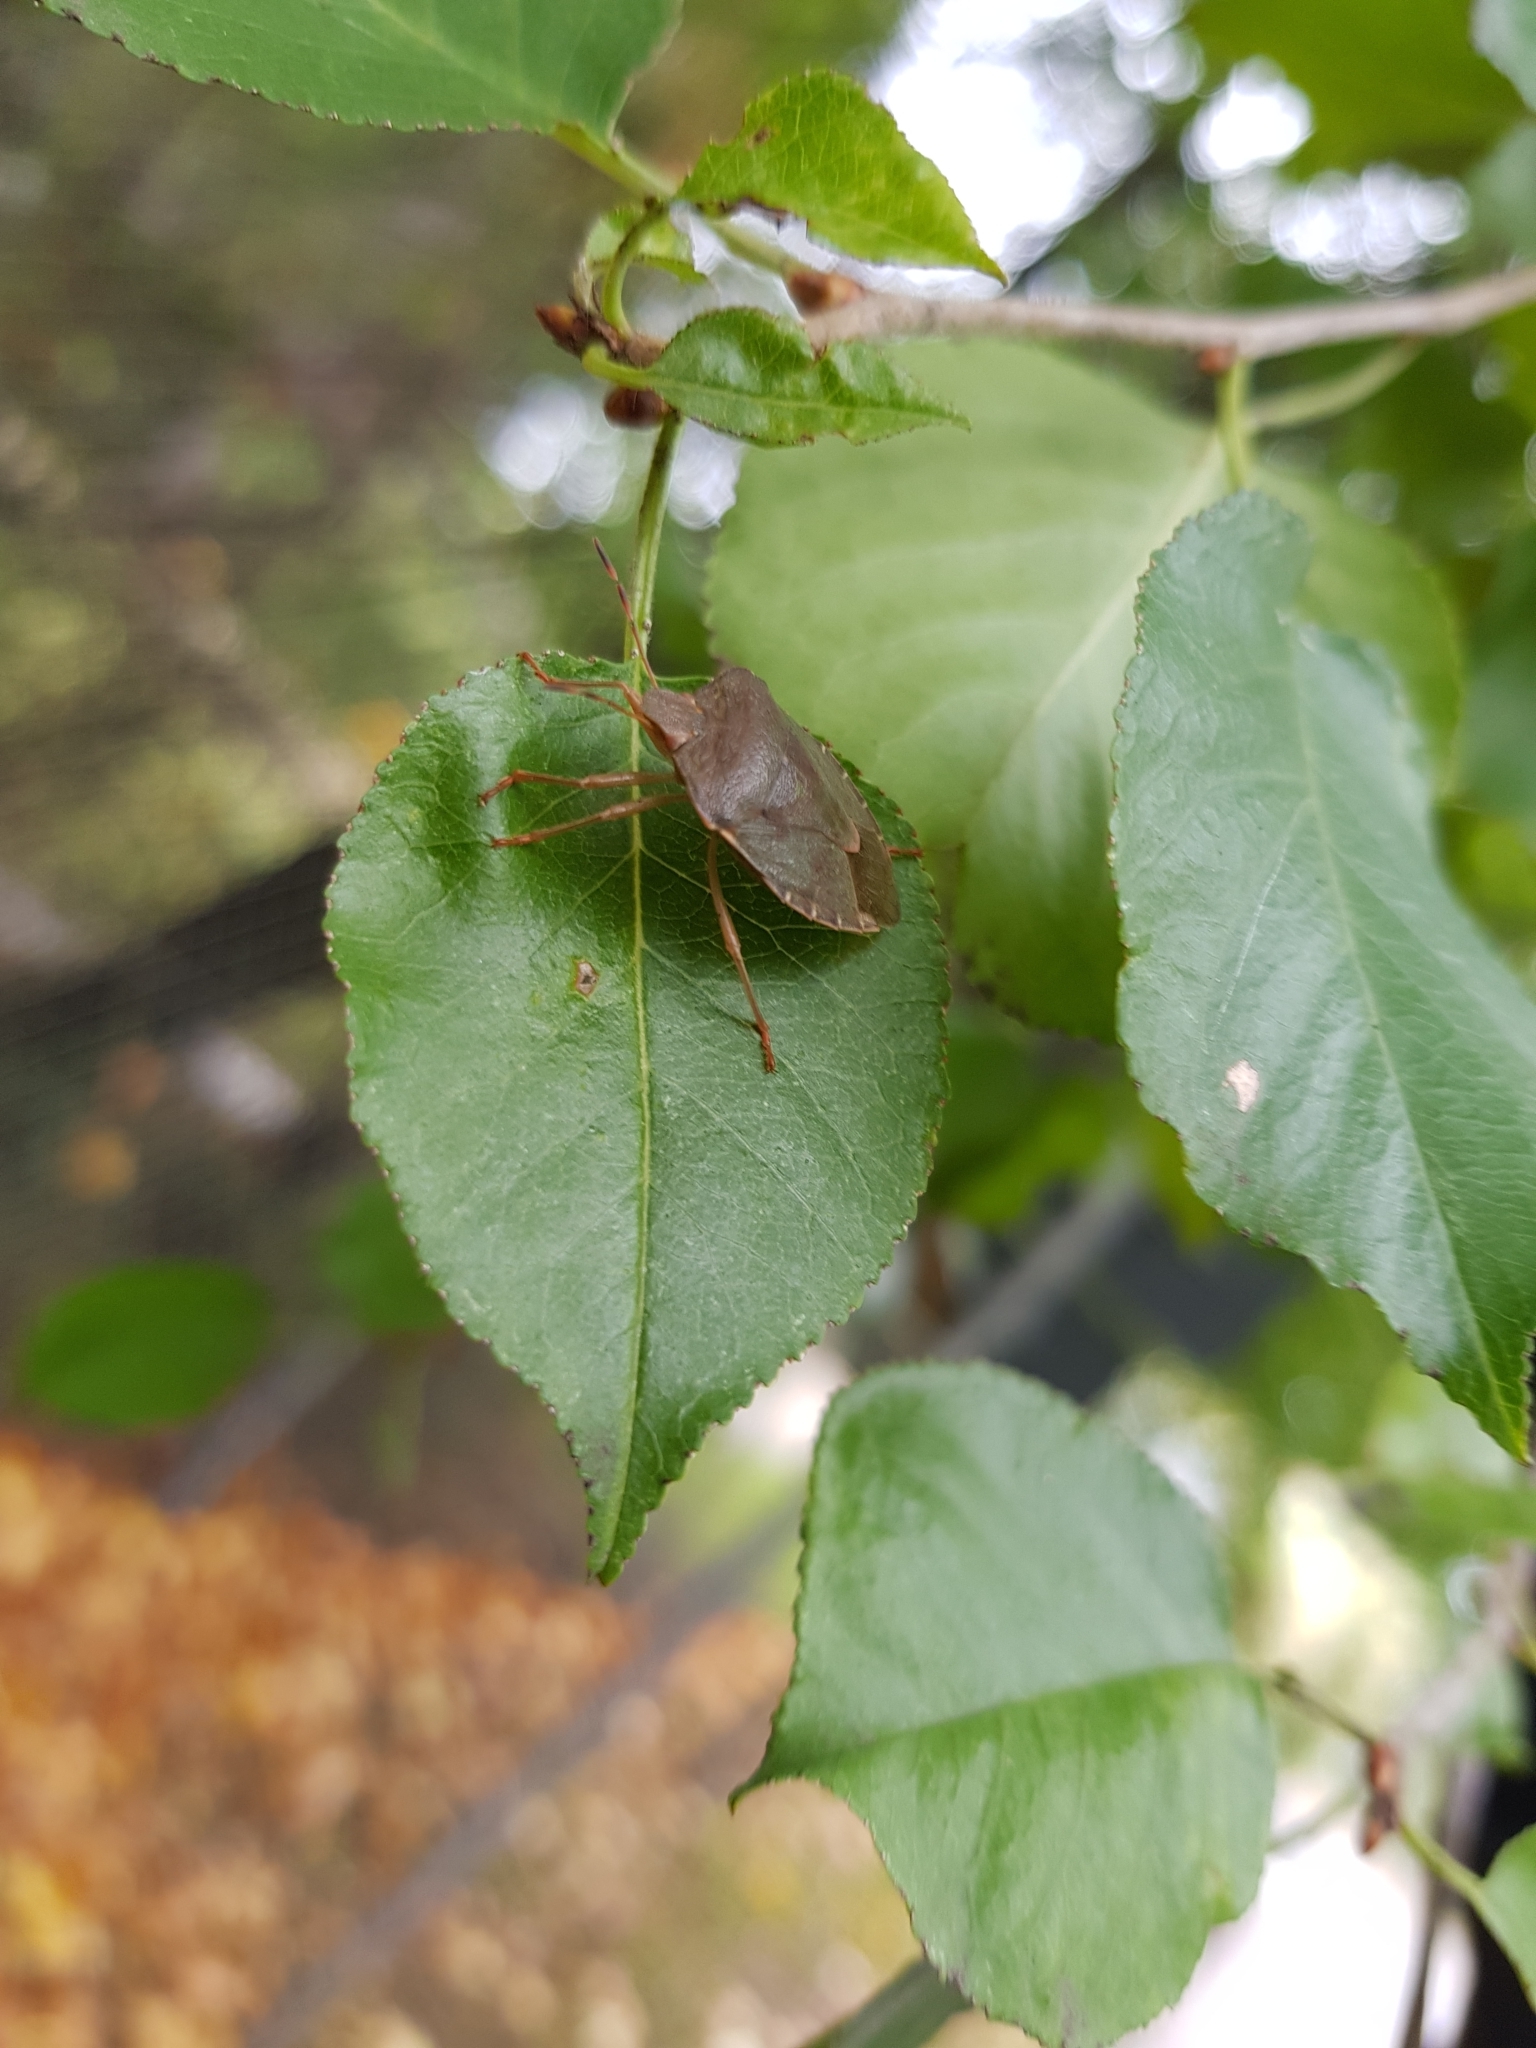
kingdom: Animalia
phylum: Arthropoda
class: Insecta
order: Hemiptera
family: Pentatomidae
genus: Palomena
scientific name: Palomena prasina
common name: Green shieldbug
